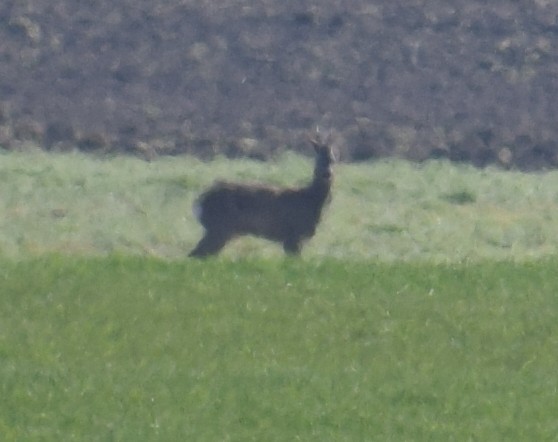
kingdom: Animalia
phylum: Chordata
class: Mammalia
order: Artiodactyla
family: Cervidae
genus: Capreolus
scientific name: Capreolus capreolus
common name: Western roe deer
